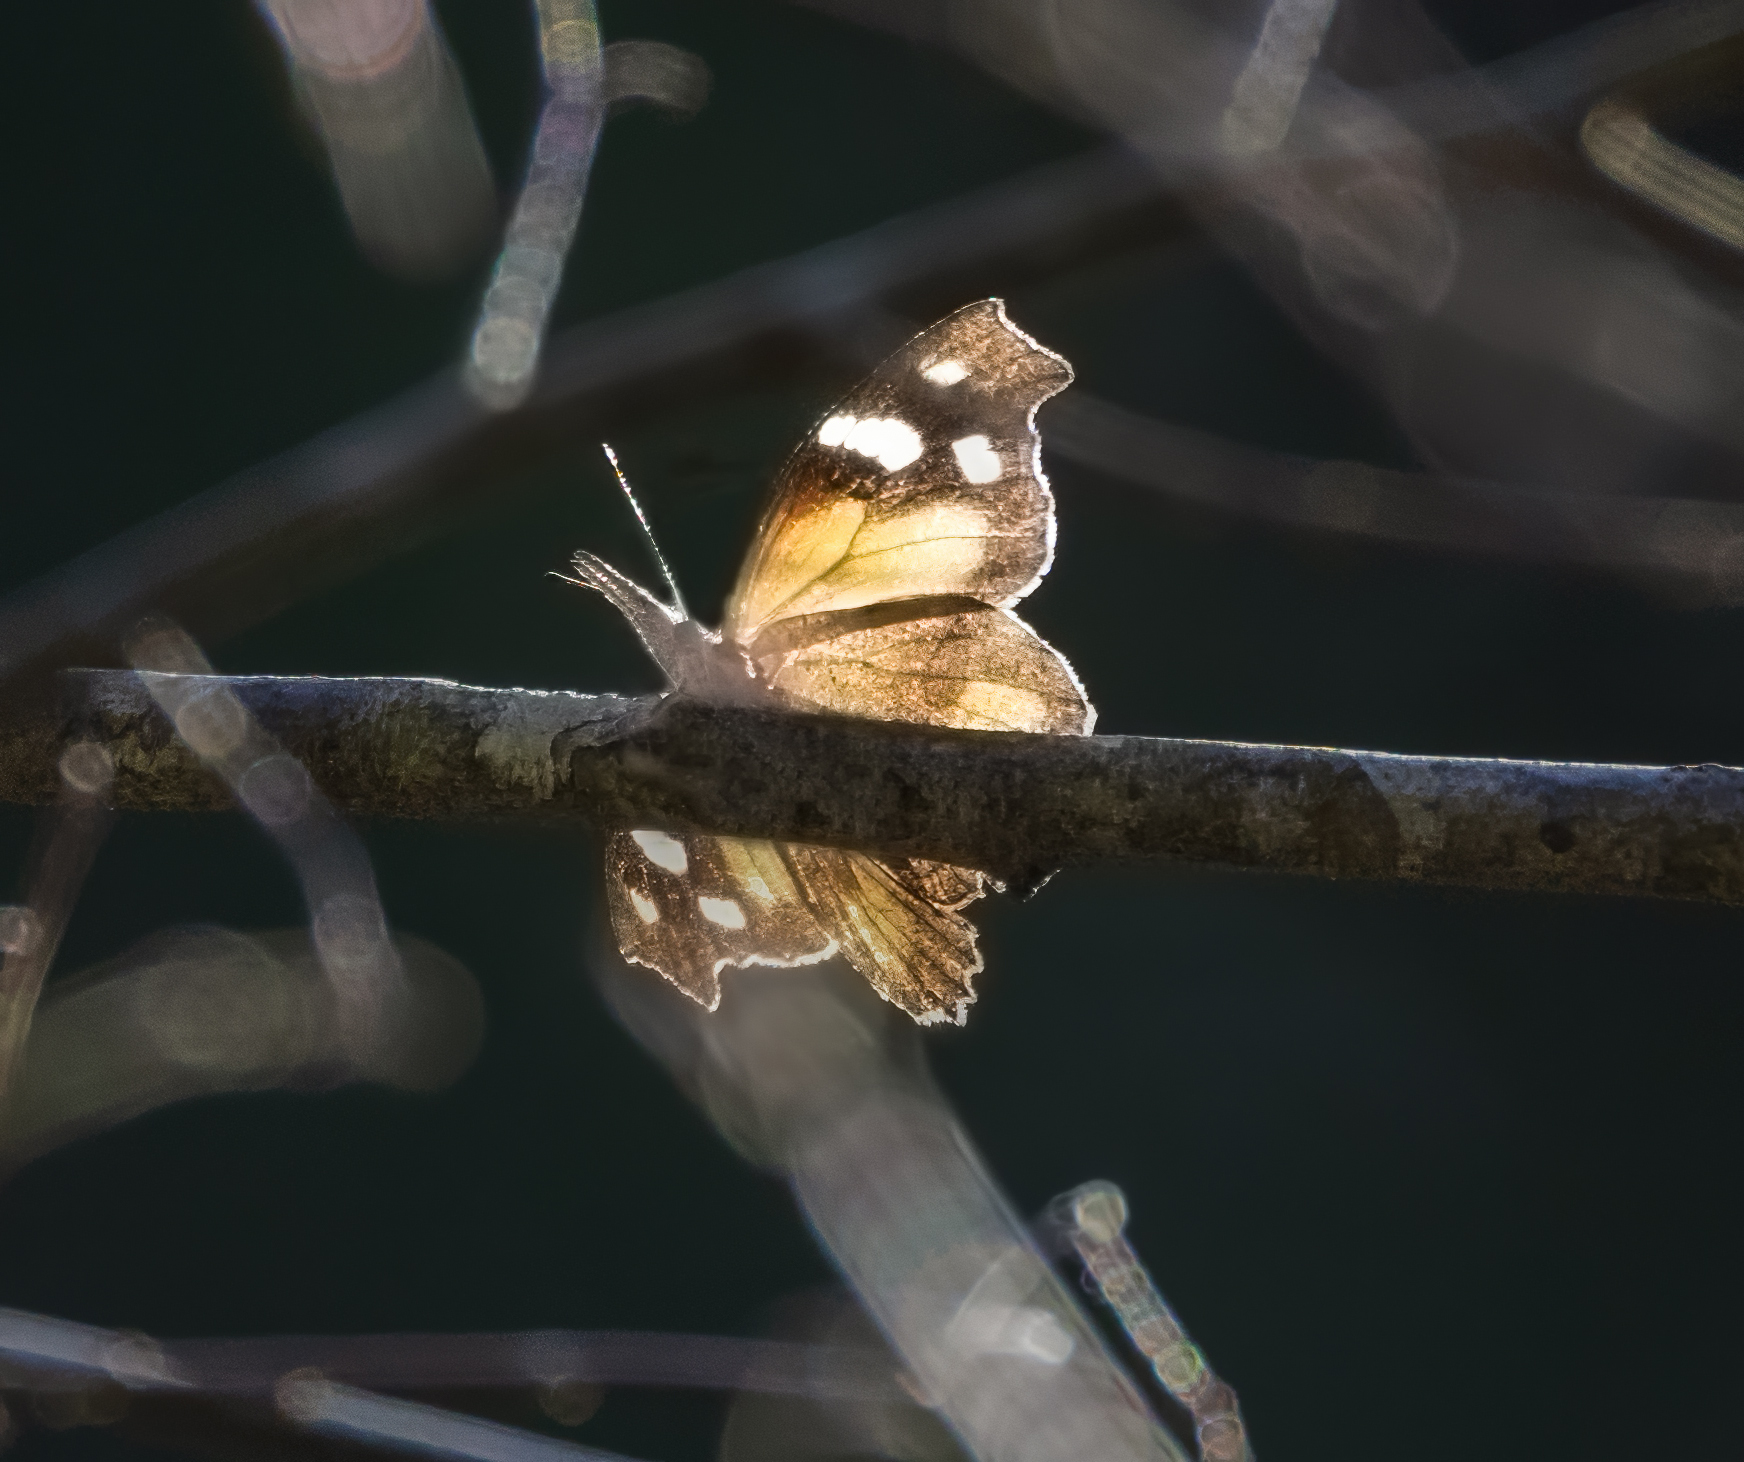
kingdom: Animalia
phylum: Arthropoda
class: Insecta
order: Lepidoptera
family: Nymphalidae
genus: Libytheana
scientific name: Libytheana carinenta
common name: American snout
